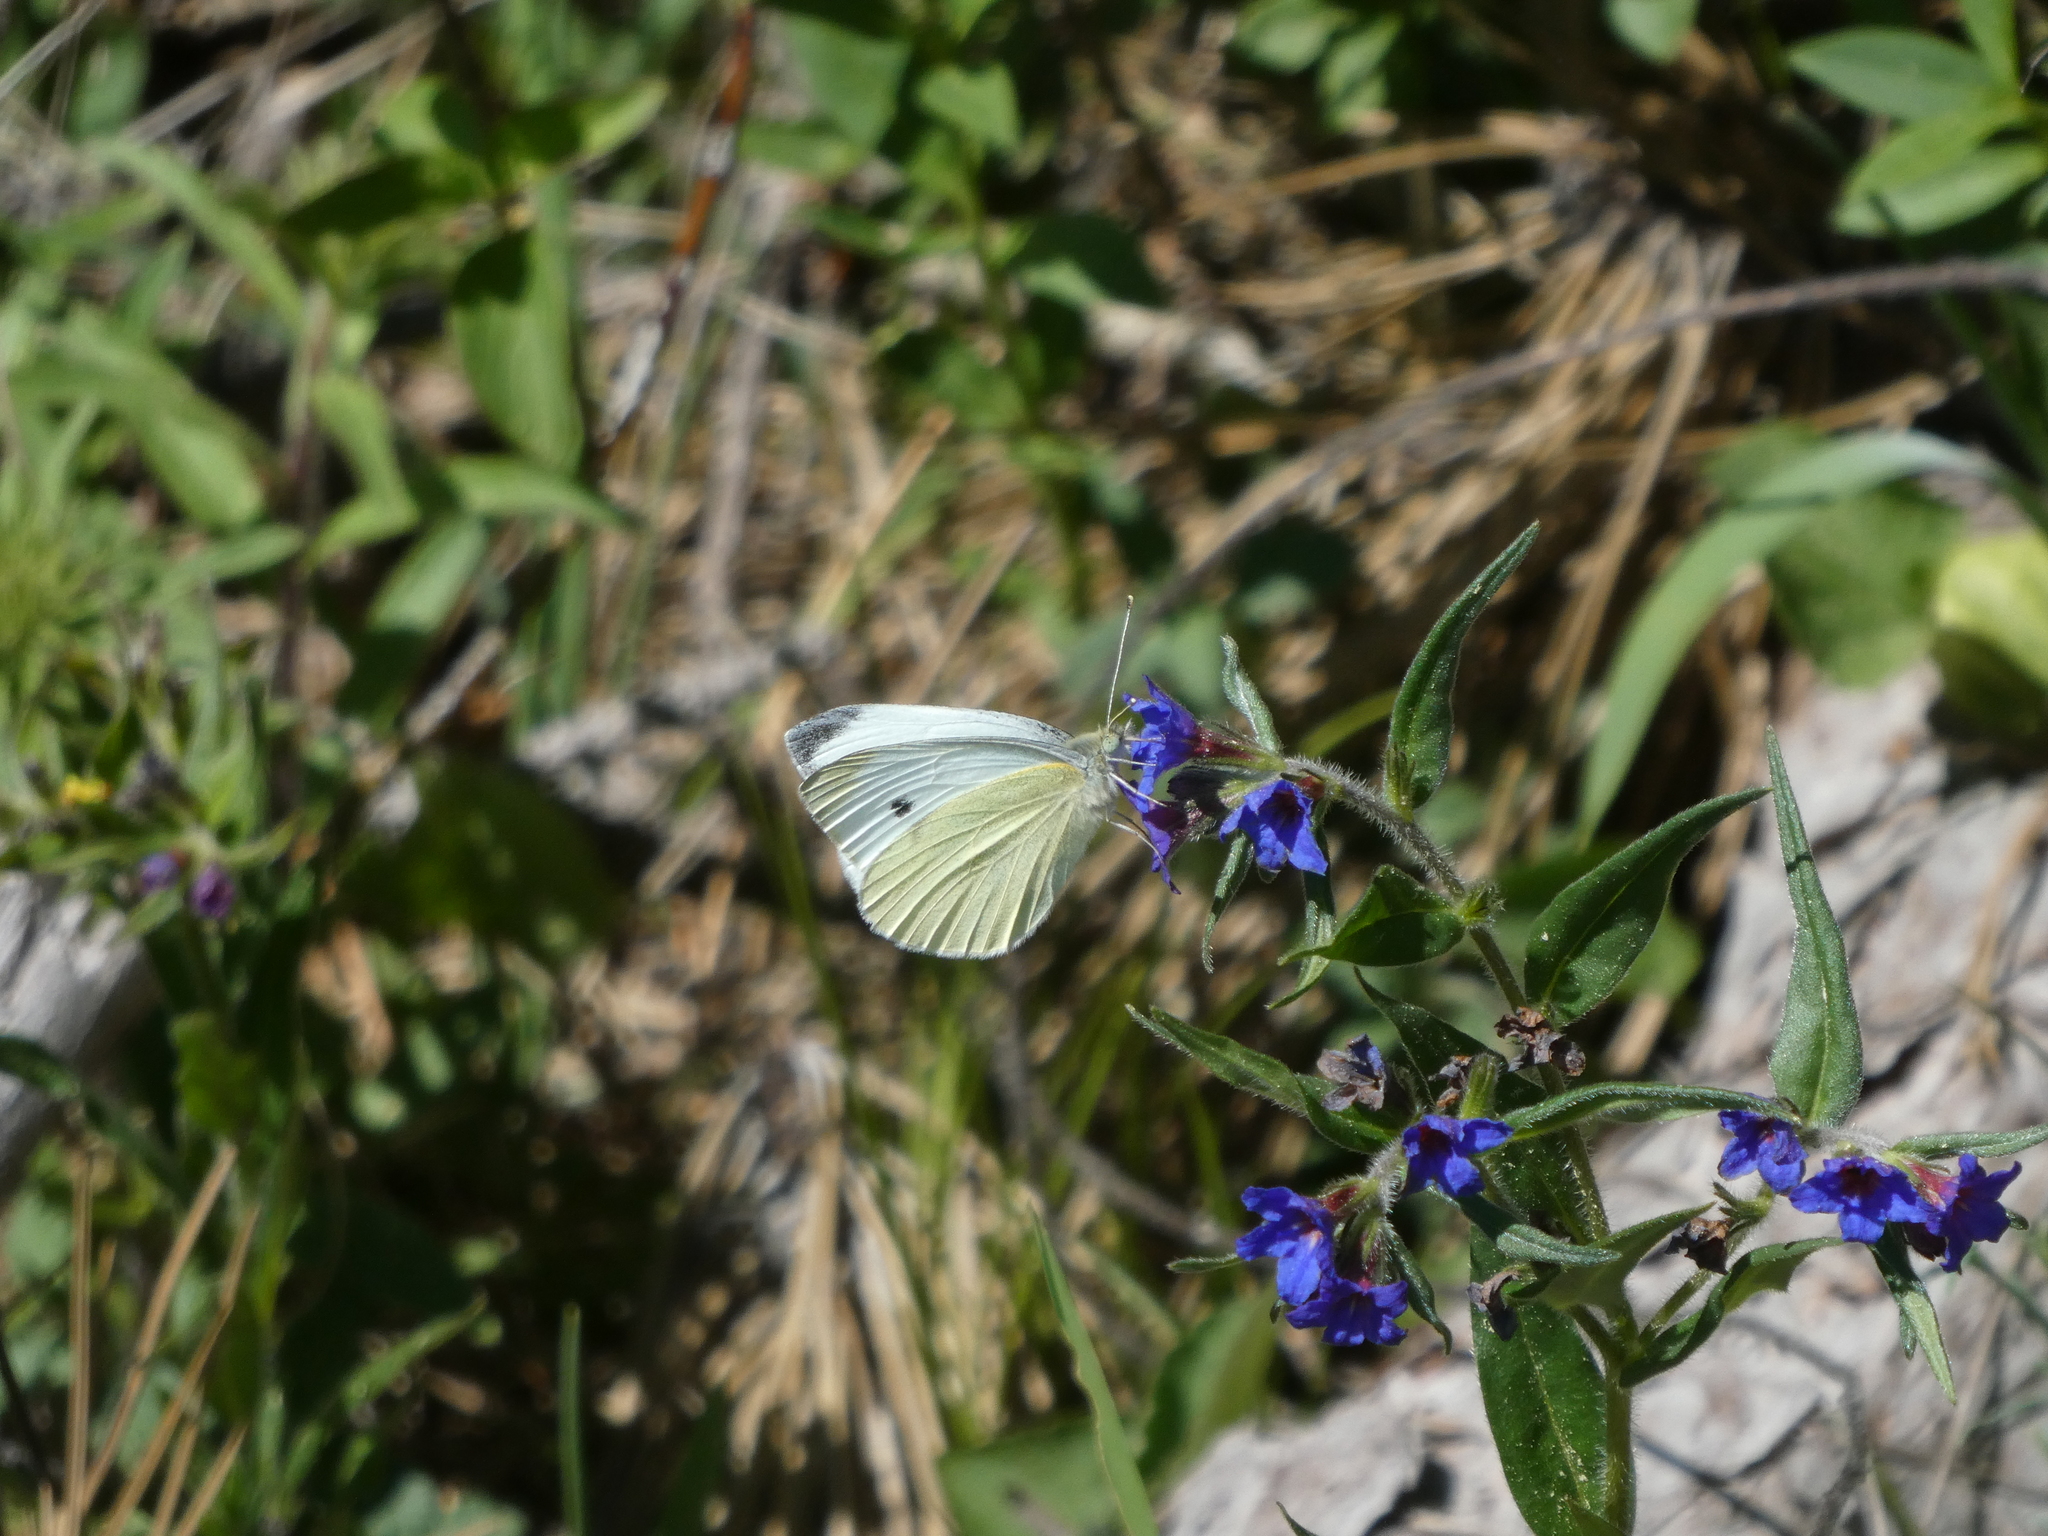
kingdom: Animalia
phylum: Arthropoda
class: Insecta
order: Lepidoptera
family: Pieridae
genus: Pieris
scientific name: Pieris rapae
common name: Small white
